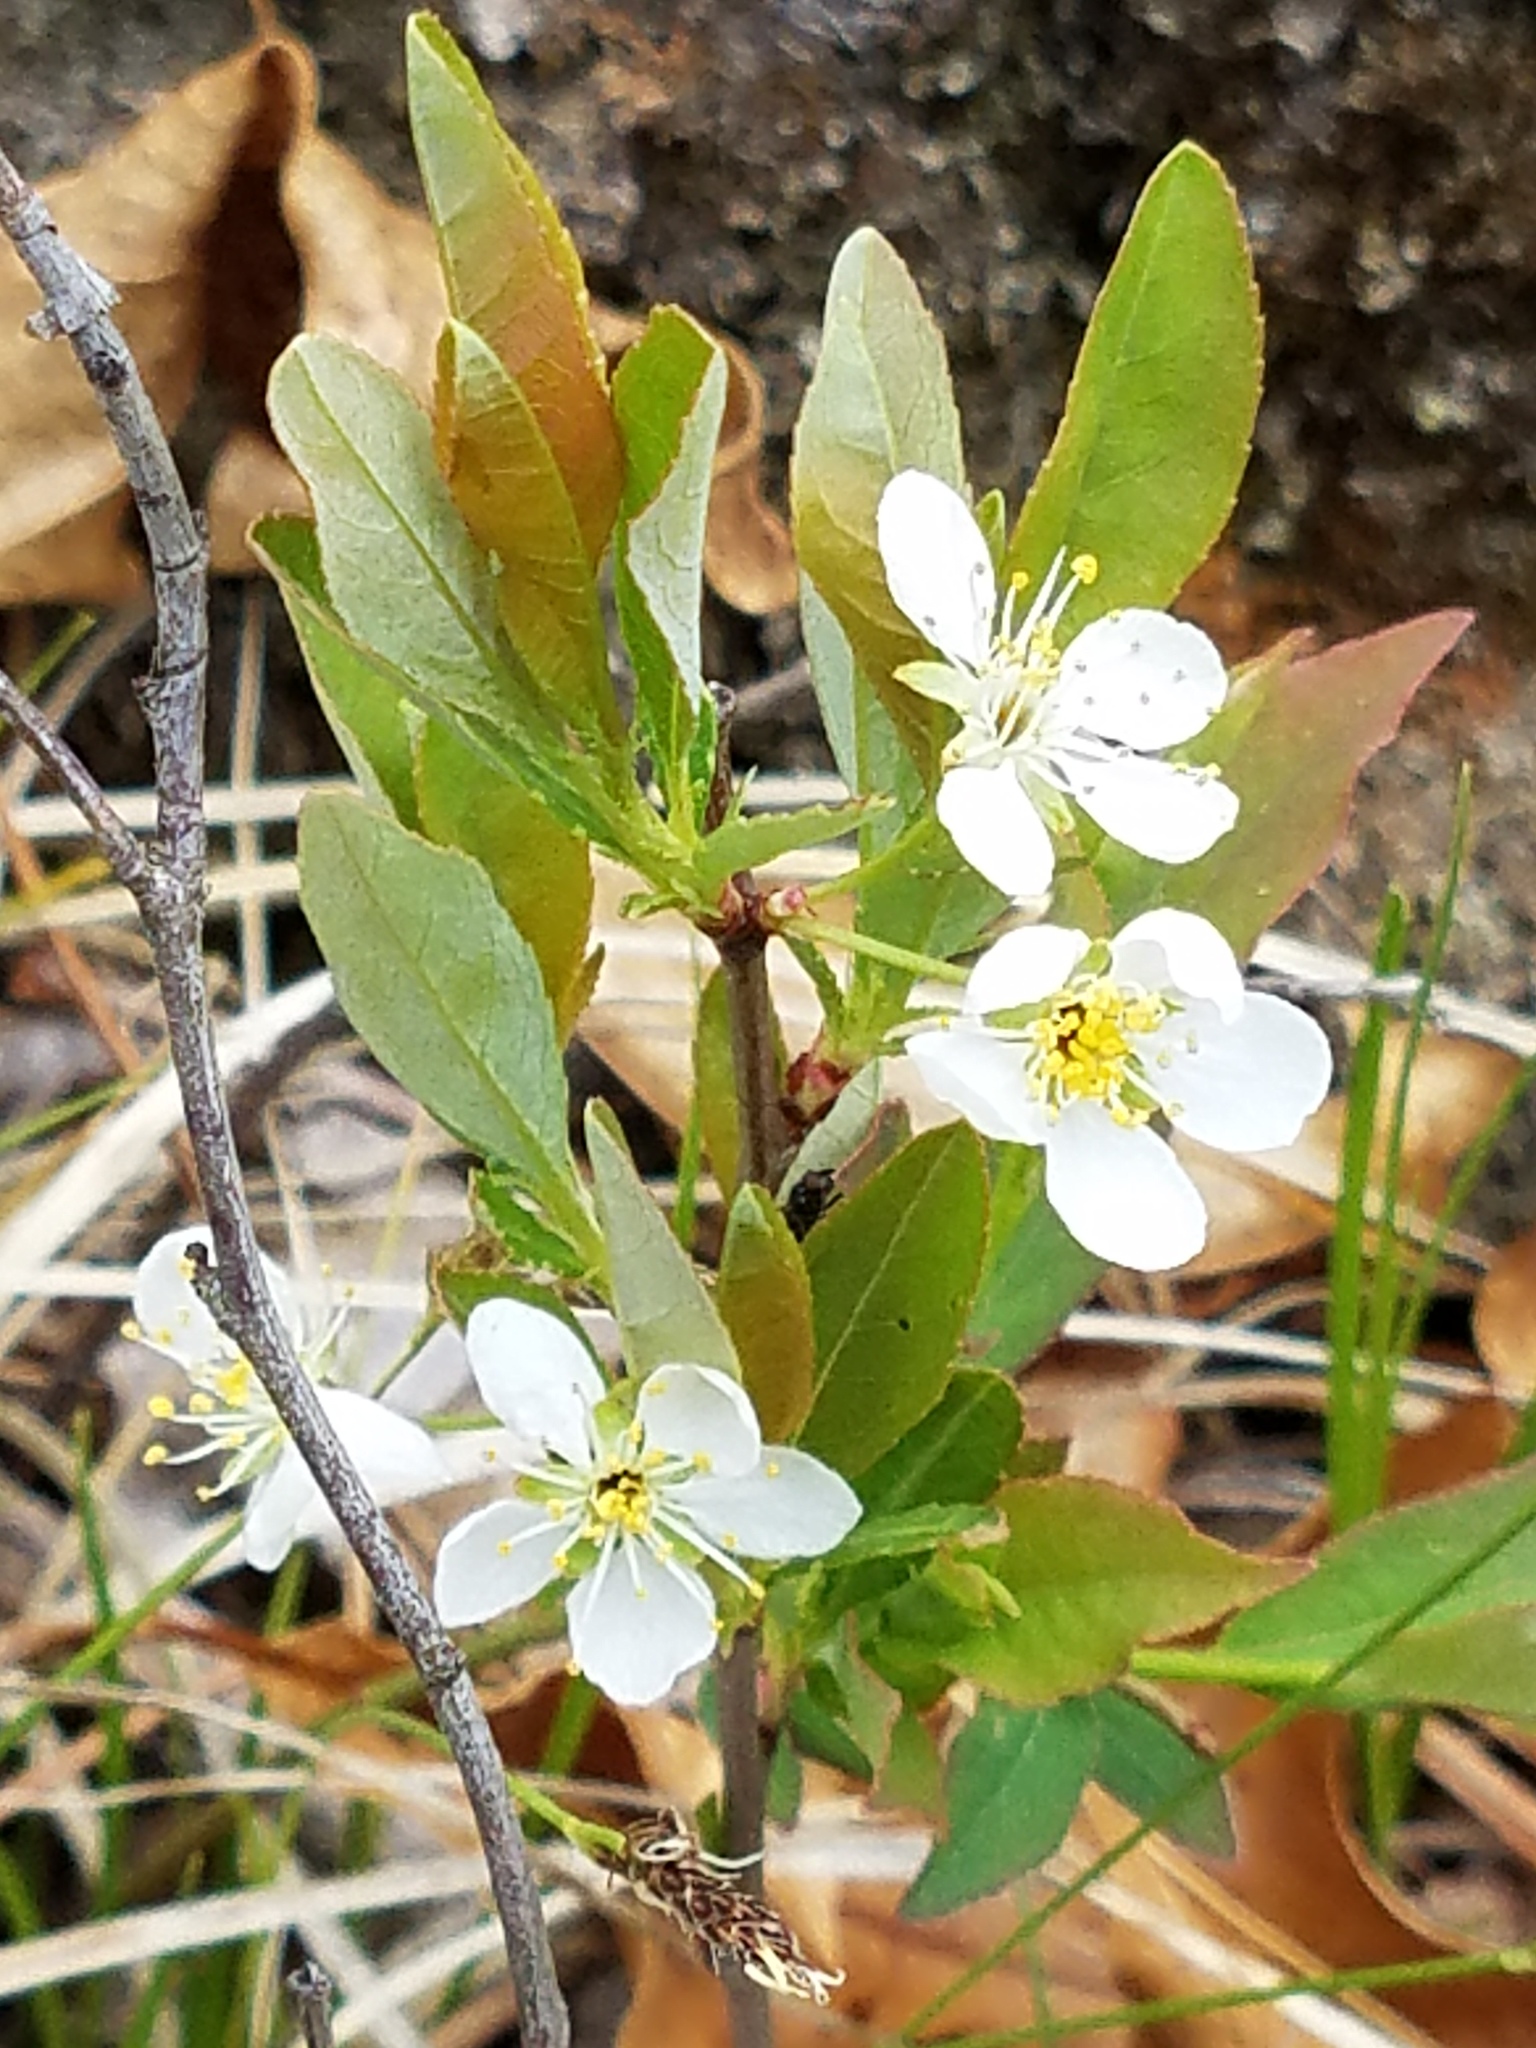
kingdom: Plantae
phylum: Tracheophyta
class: Magnoliopsida
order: Rosales
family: Rosaceae
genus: Prunus
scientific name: Prunus pumila
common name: Dwarf cherry
